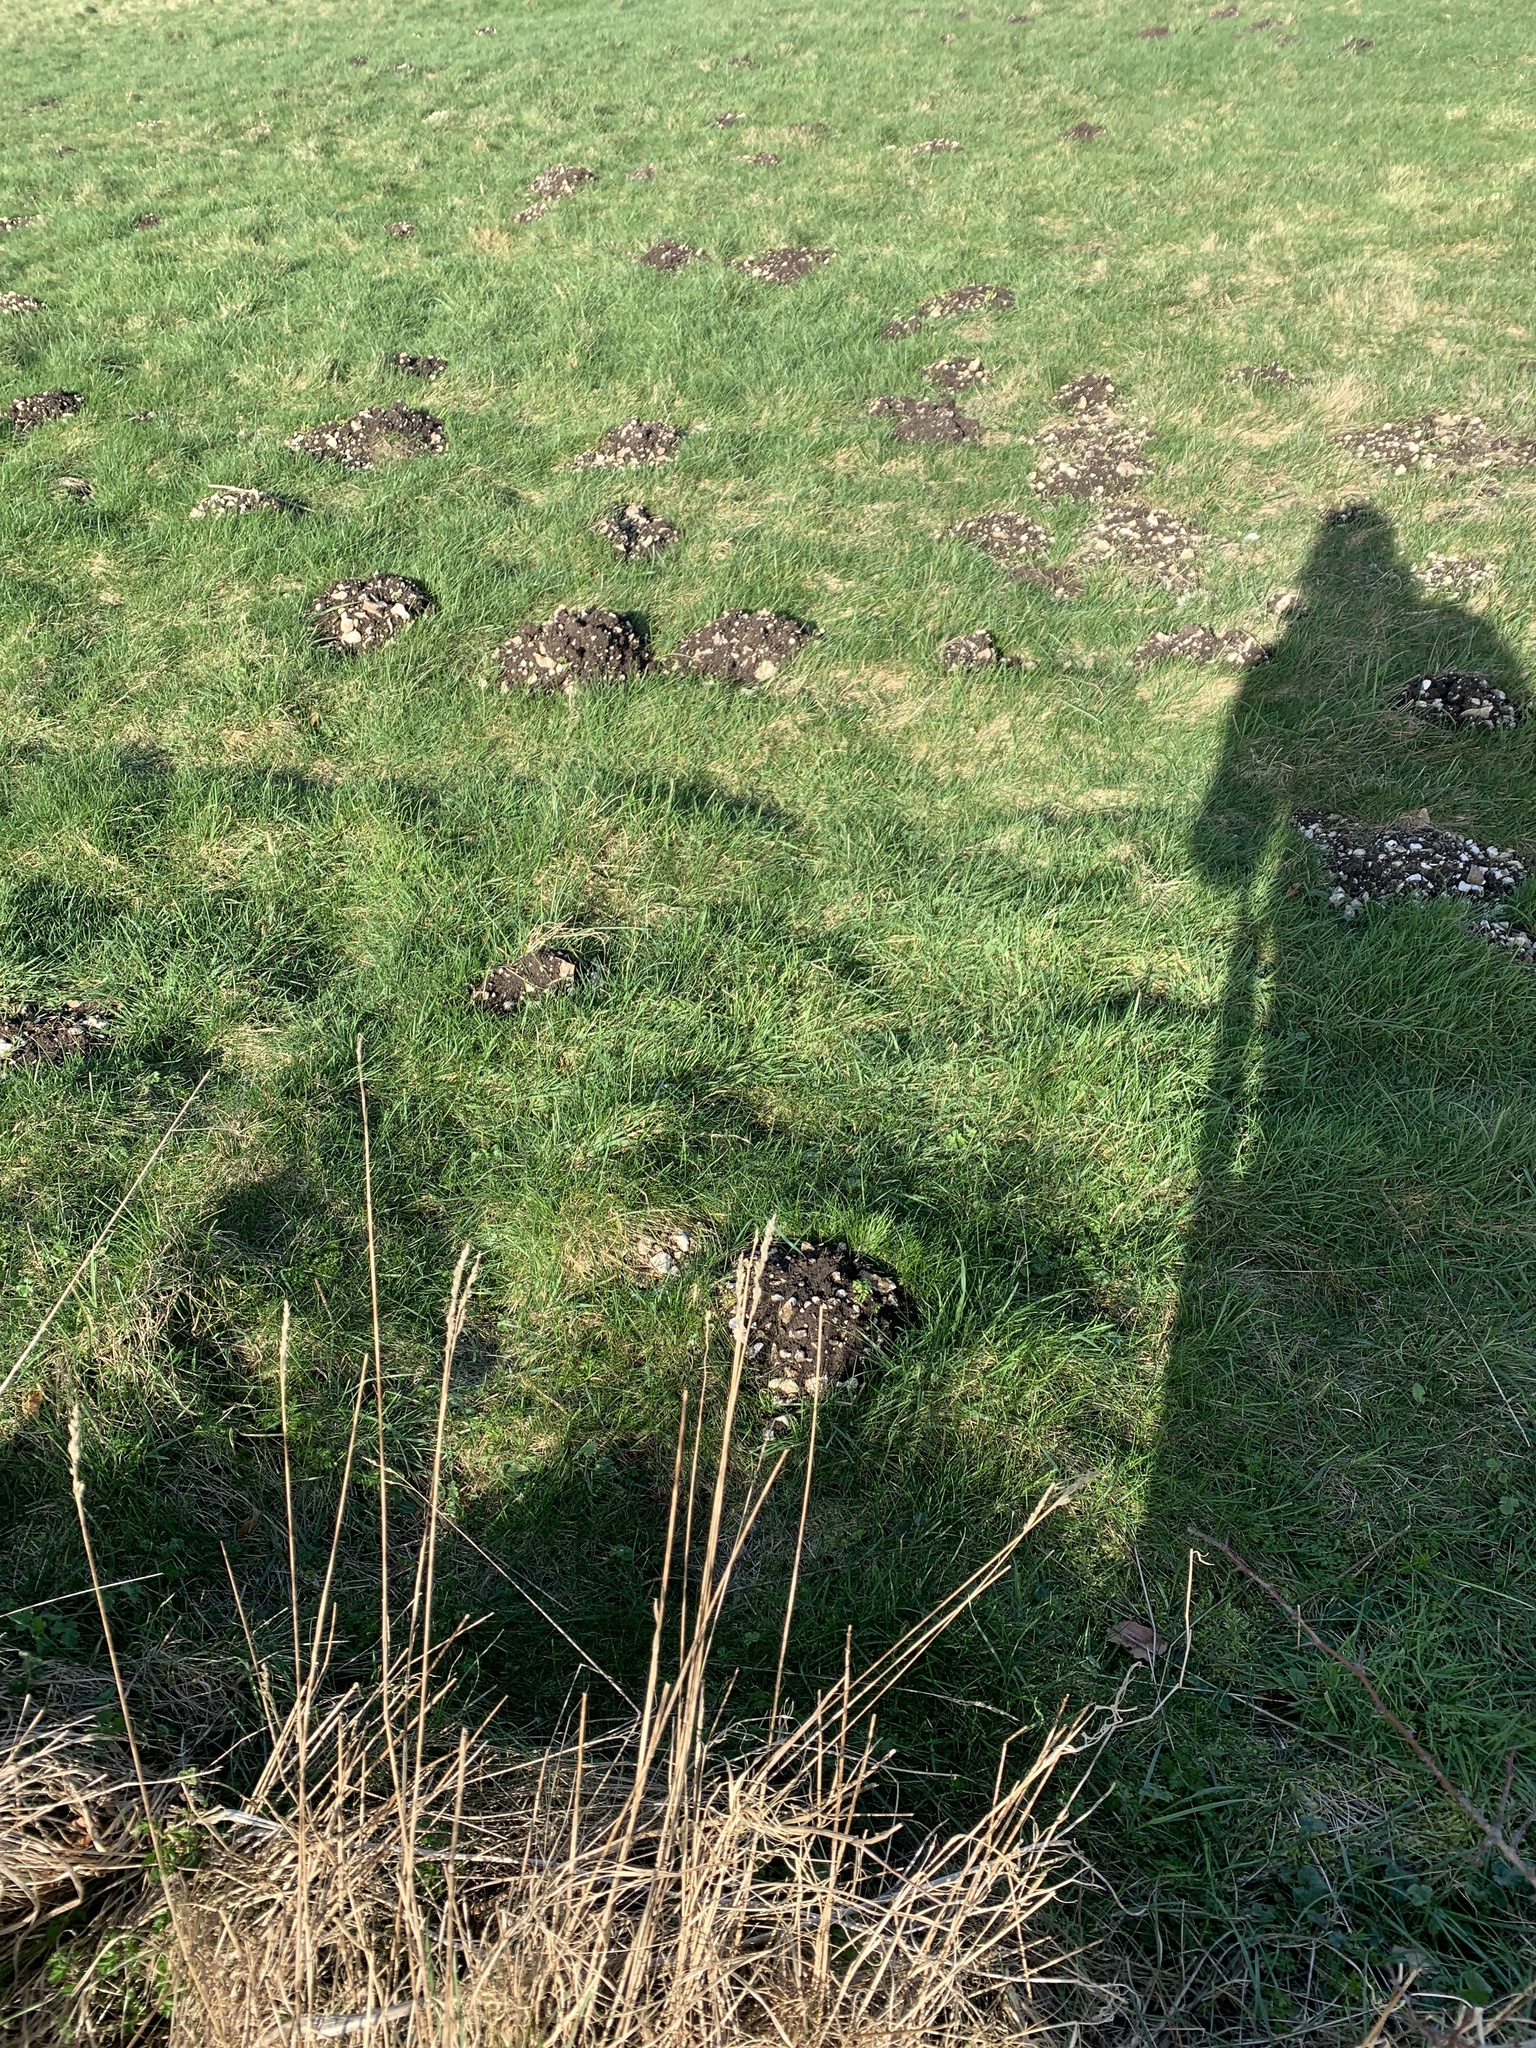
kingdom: Animalia
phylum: Chordata
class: Mammalia
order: Soricomorpha
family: Talpidae
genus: Talpa
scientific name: Talpa europaea
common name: European mole
